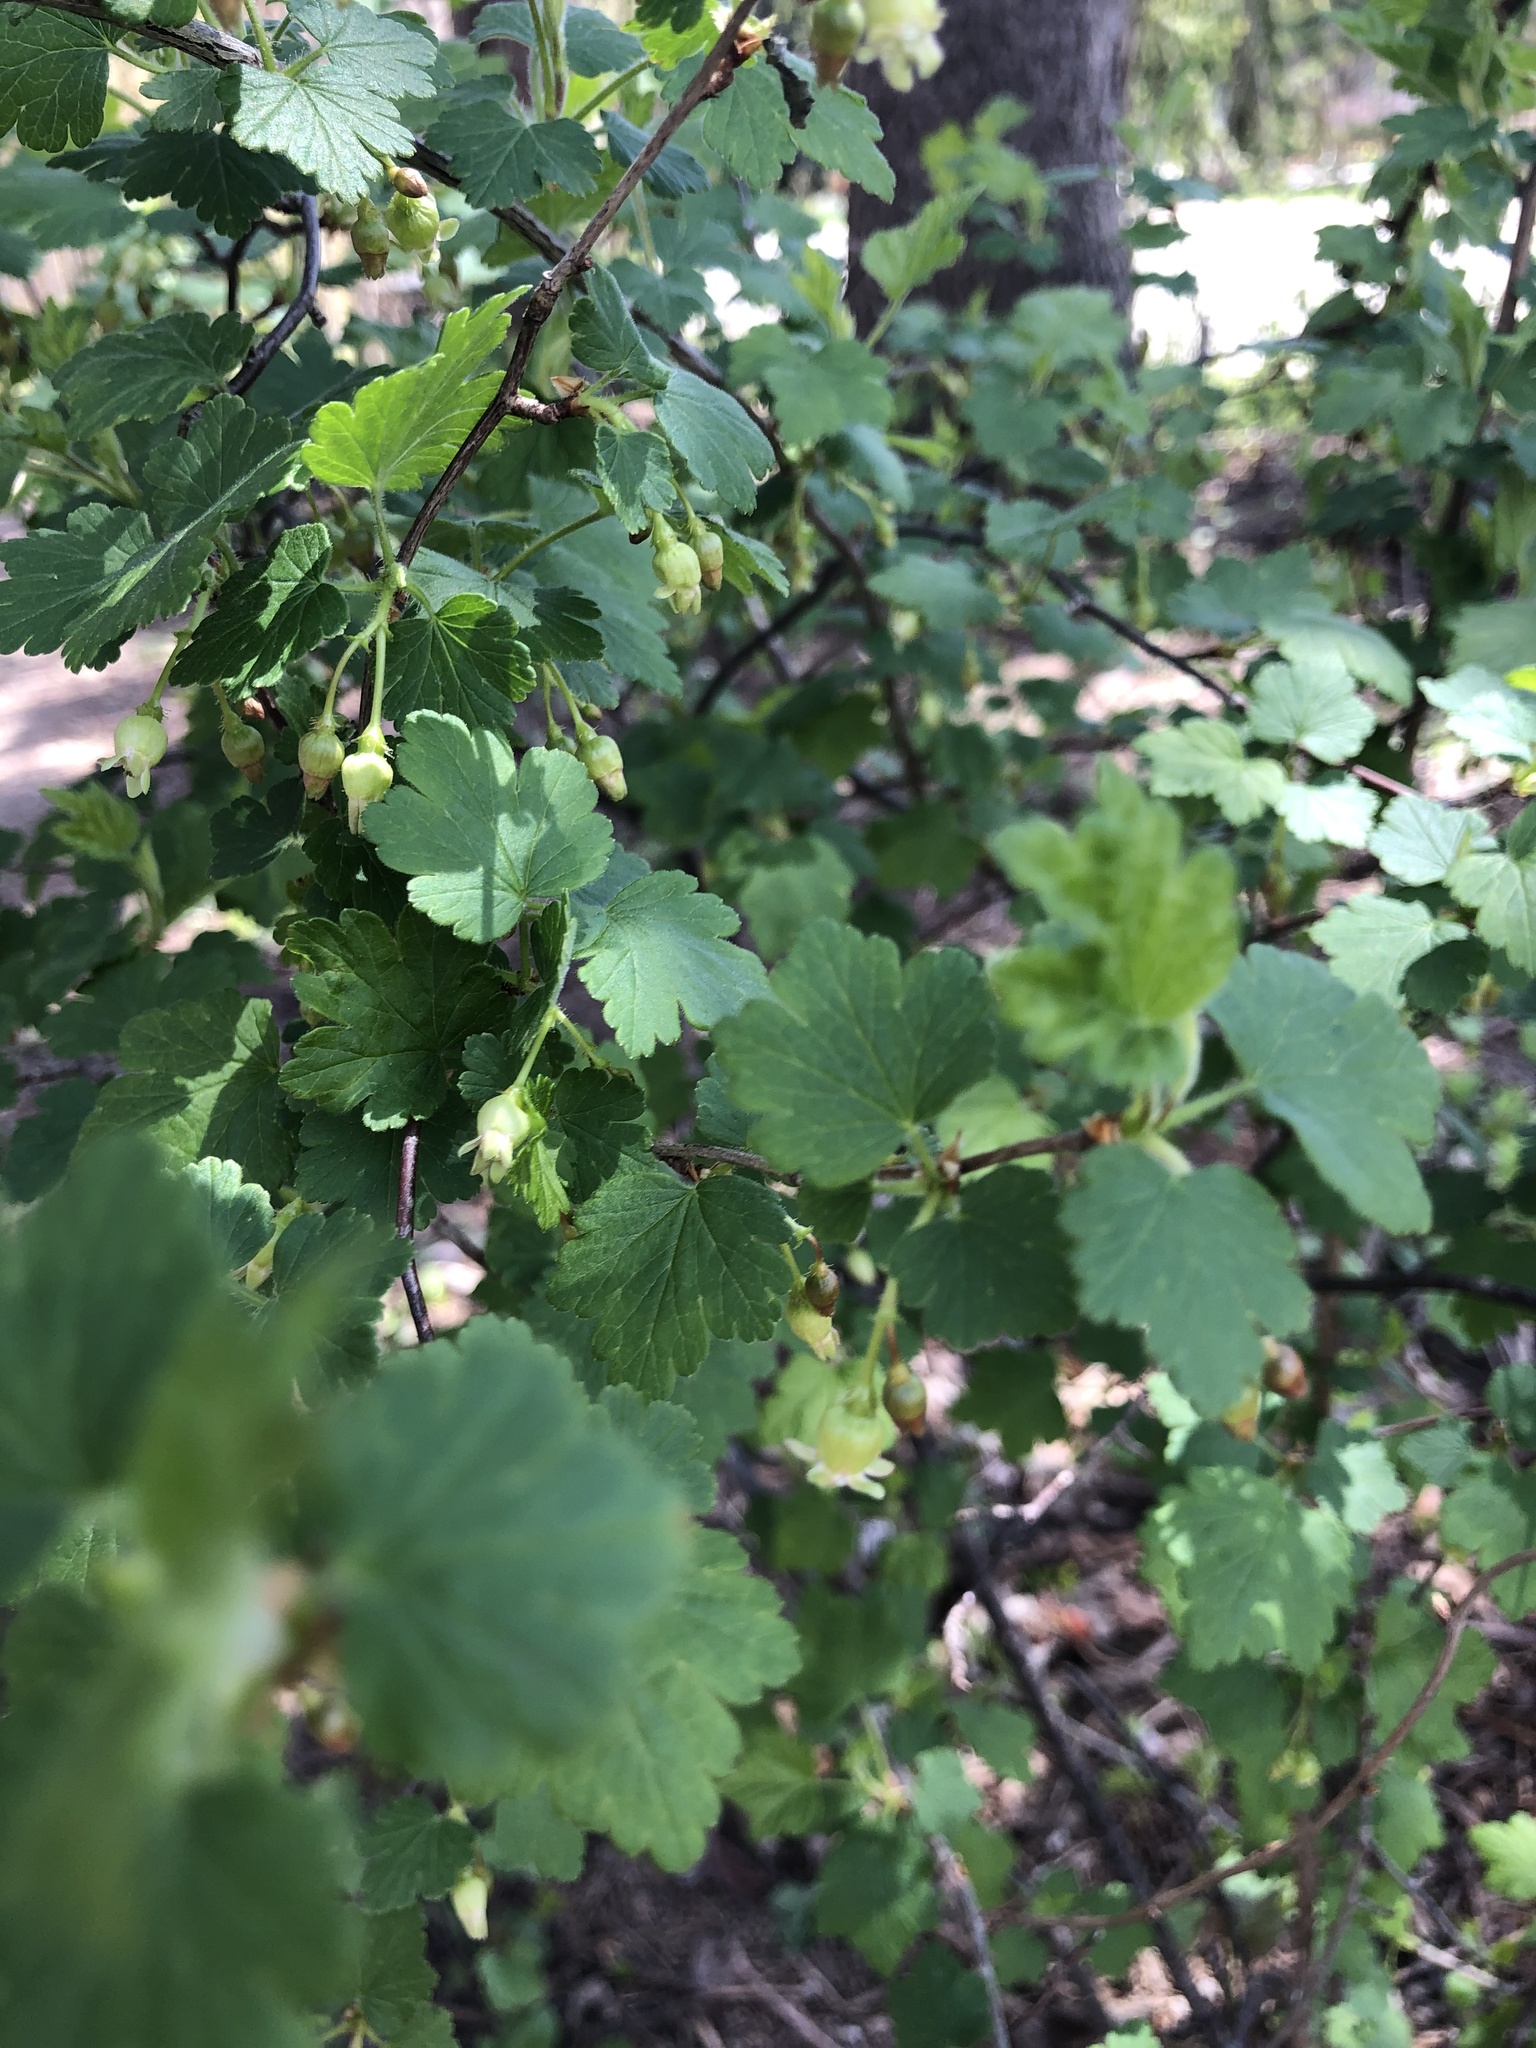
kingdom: Plantae
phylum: Tracheophyta
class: Magnoliopsida
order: Saxifragales
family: Grossulariaceae
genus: Ribes
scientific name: Ribes cynosbati
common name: American gooseberry
